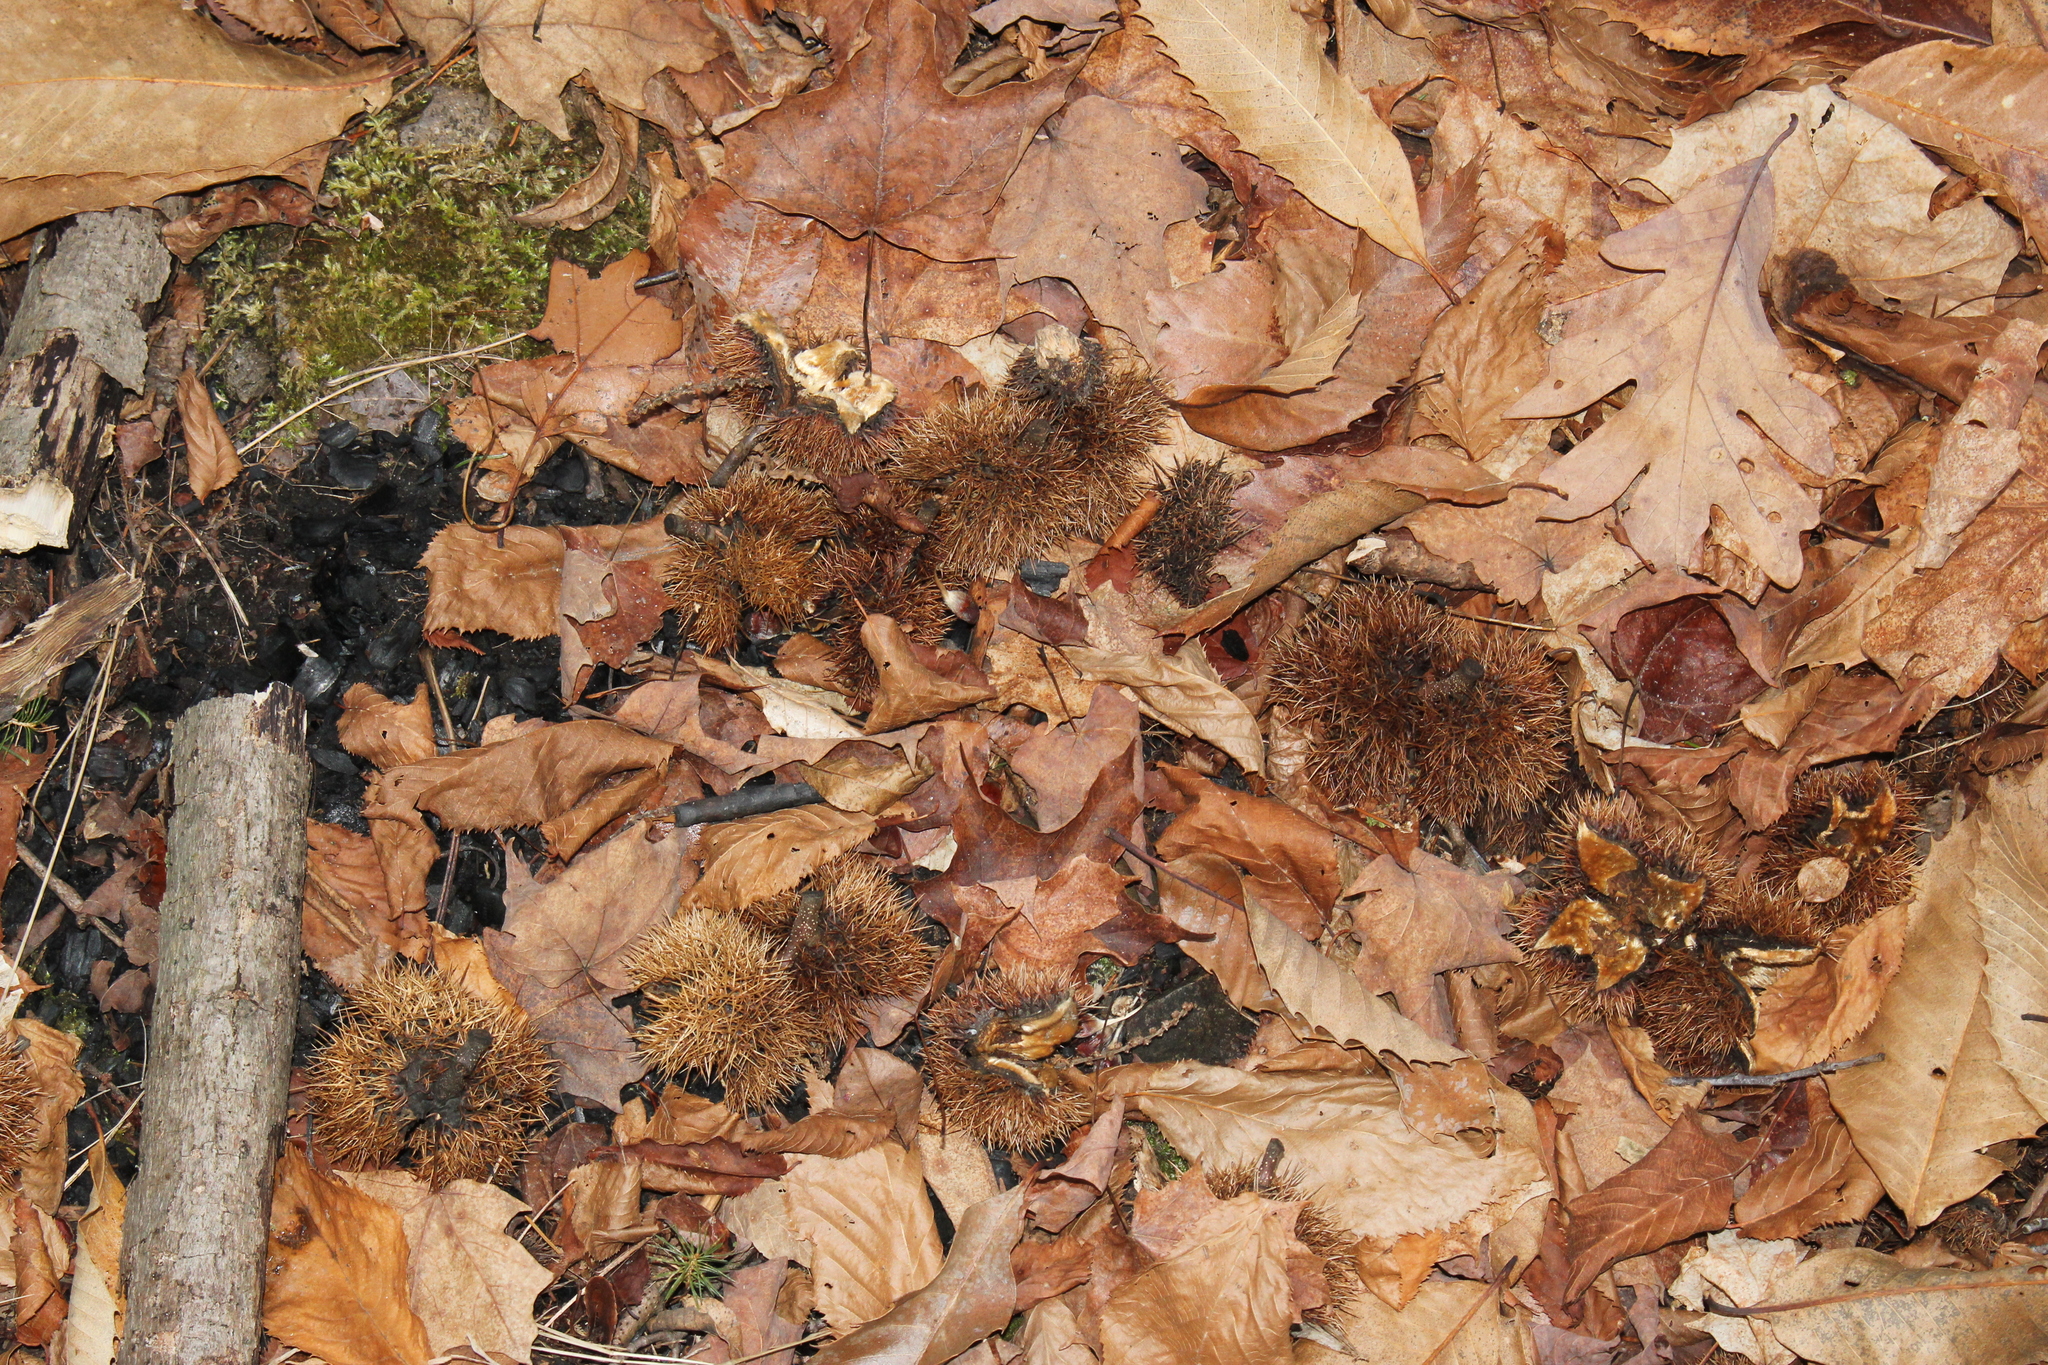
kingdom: Plantae
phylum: Tracheophyta
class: Magnoliopsida
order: Fagales
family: Fagaceae
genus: Castanea
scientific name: Castanea dentata
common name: American chestnut
